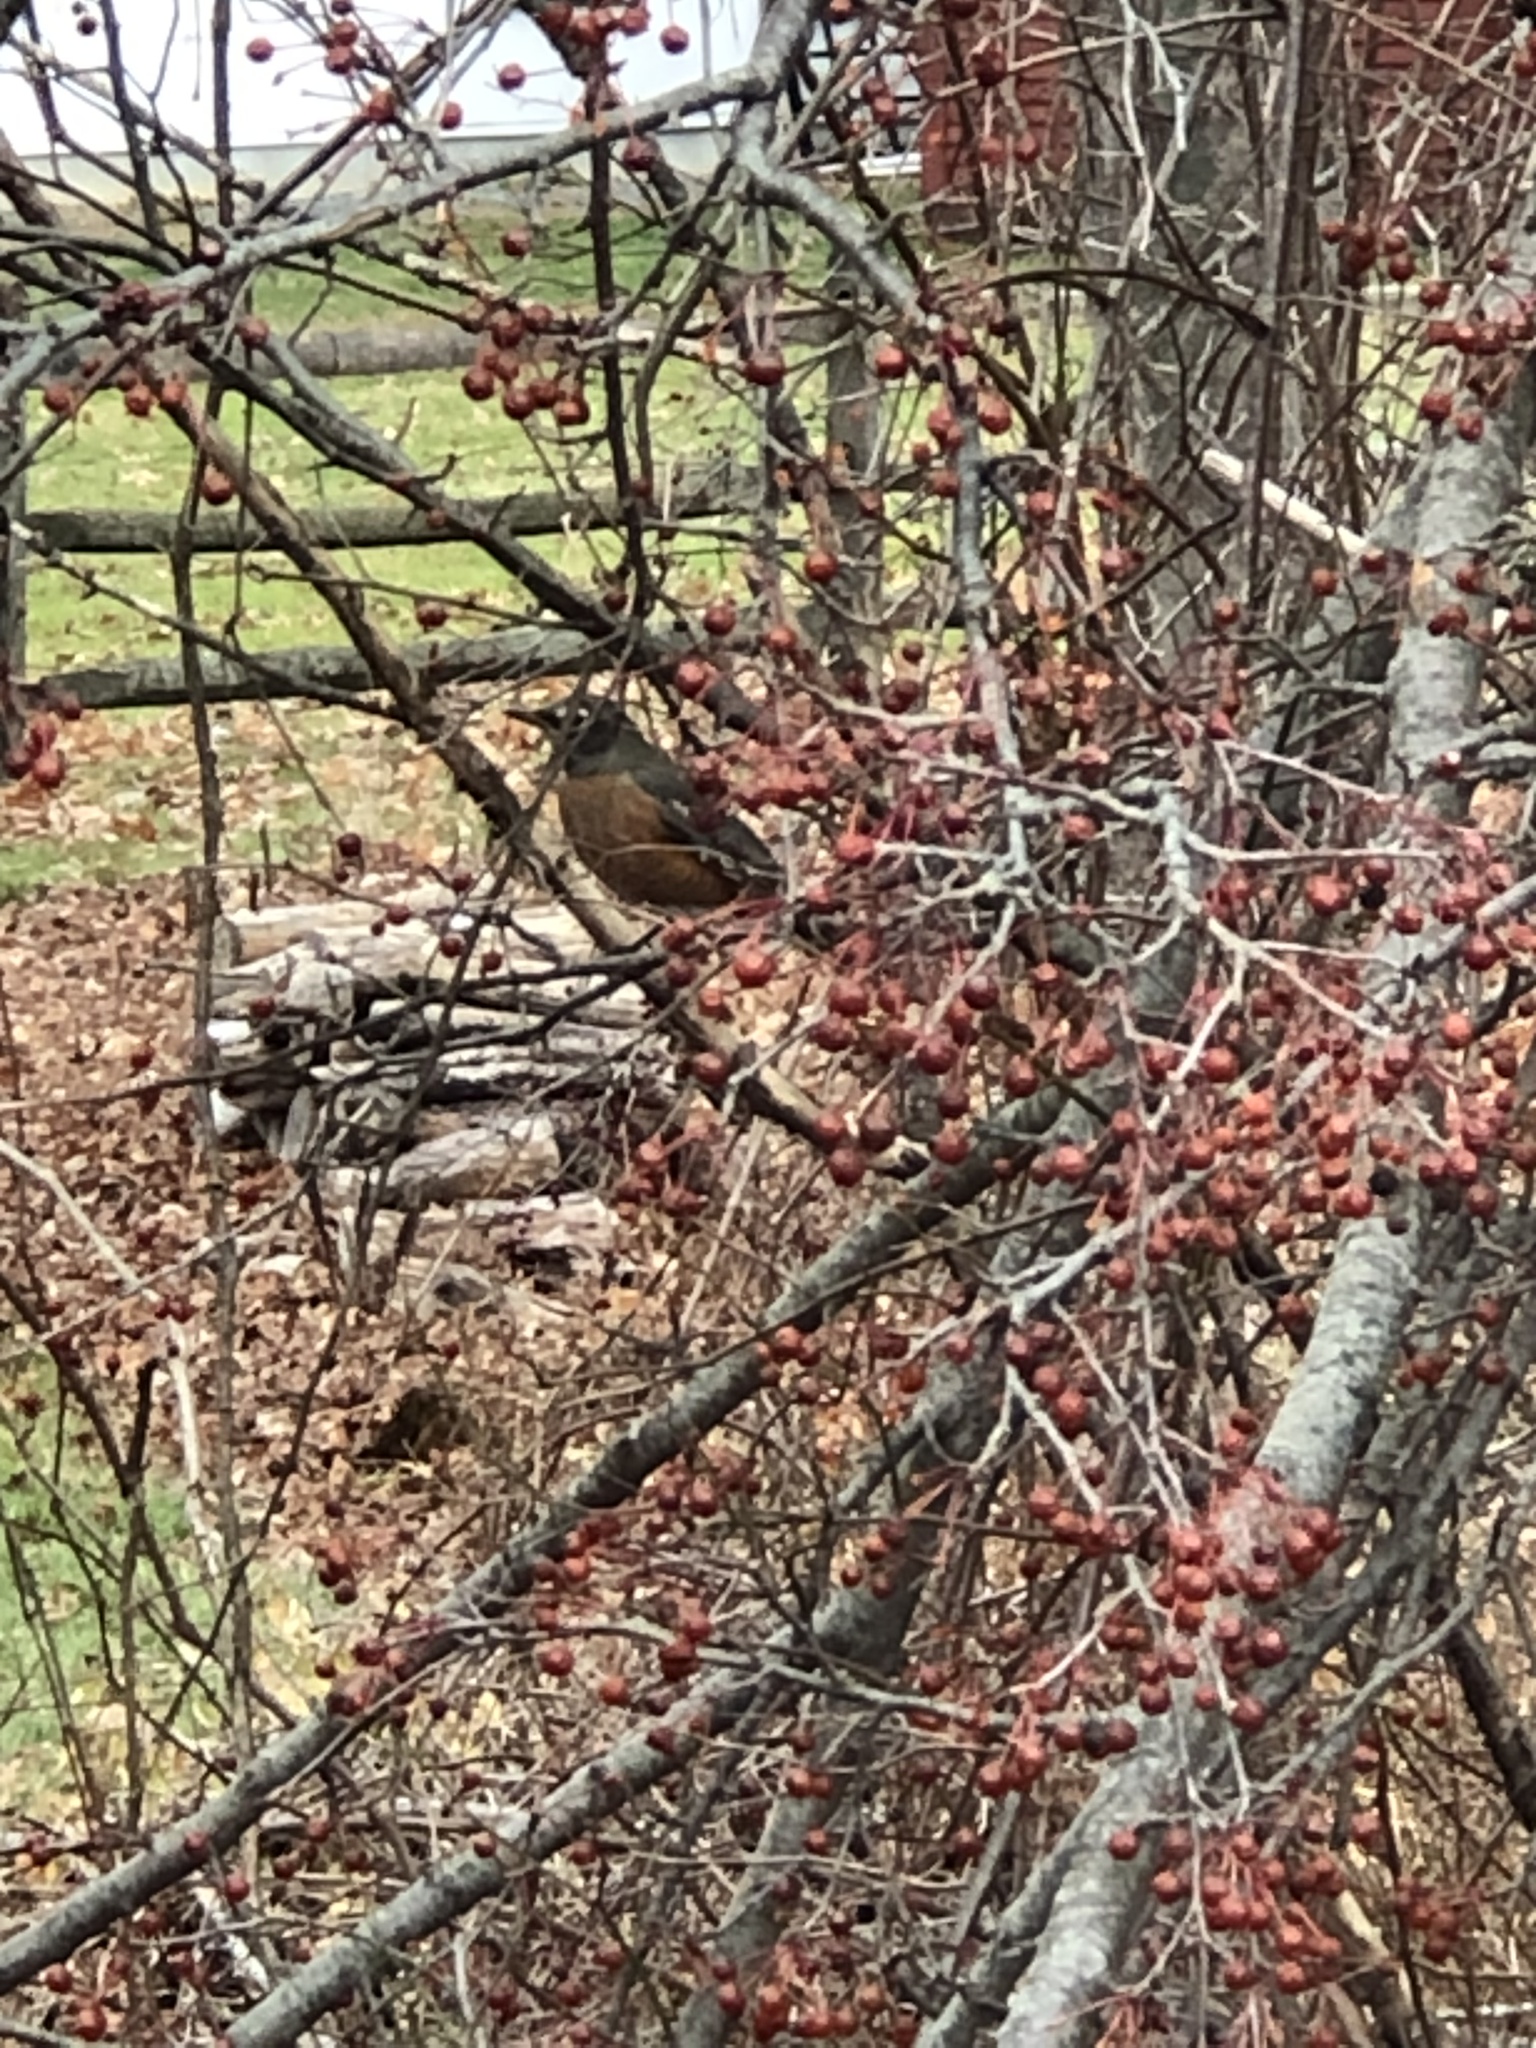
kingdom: Animalia
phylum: Chordata
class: Aves
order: Passeriformes
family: Turdidae
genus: Turdus
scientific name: Turdus migratorius
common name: American robin
